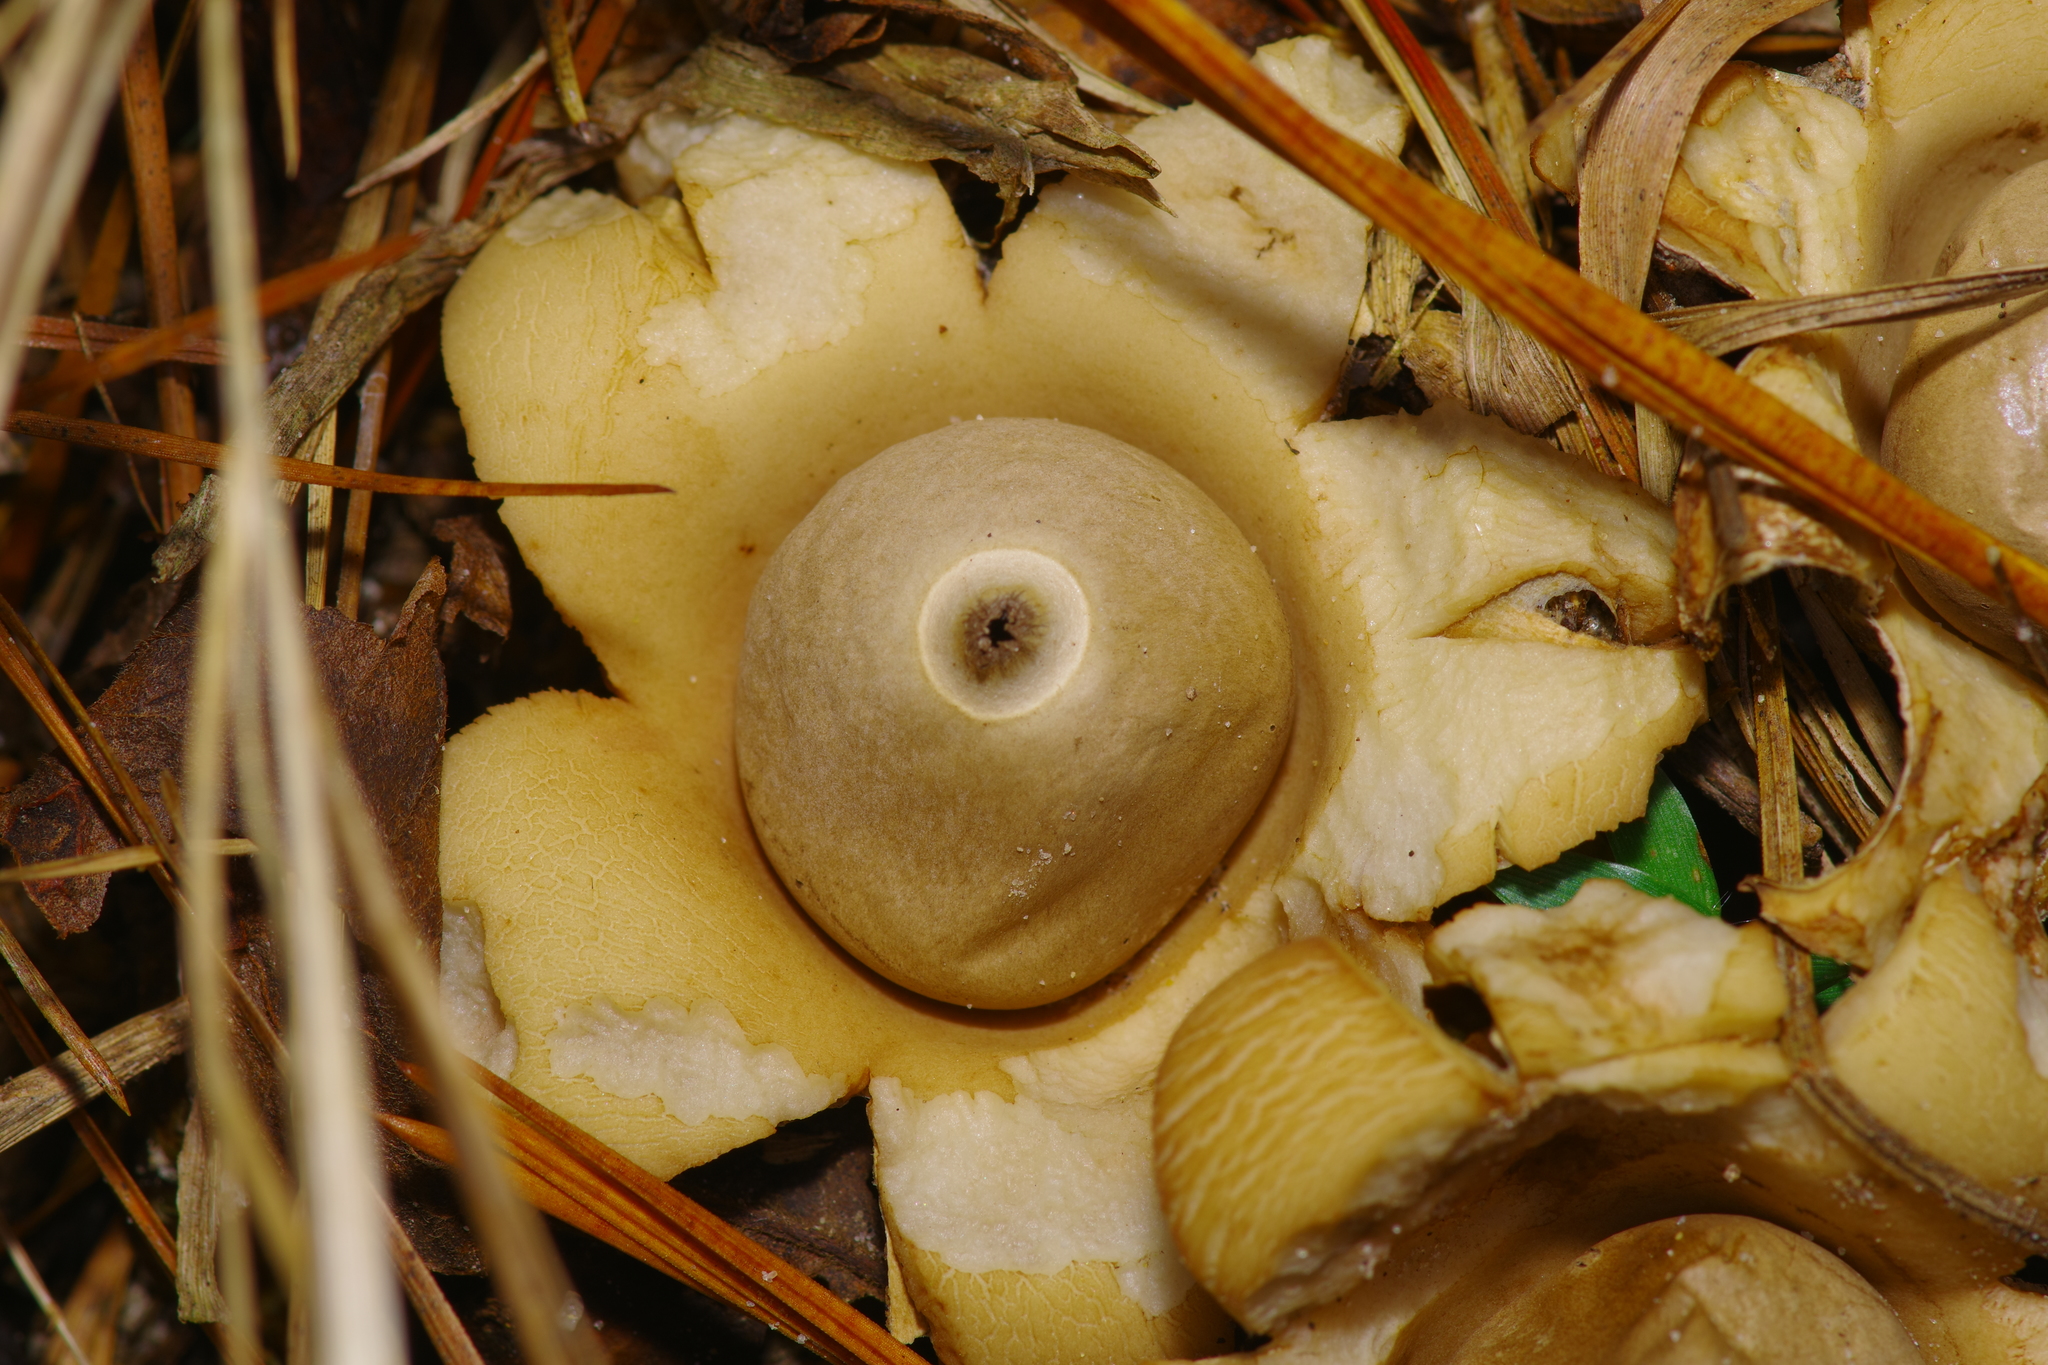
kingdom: Fungi
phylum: Basidiomycota
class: Agaricomycetes
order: Geastrales
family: Geastraceae
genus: Geastrum
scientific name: Geastrum saccatum
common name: Rounded earthstar
